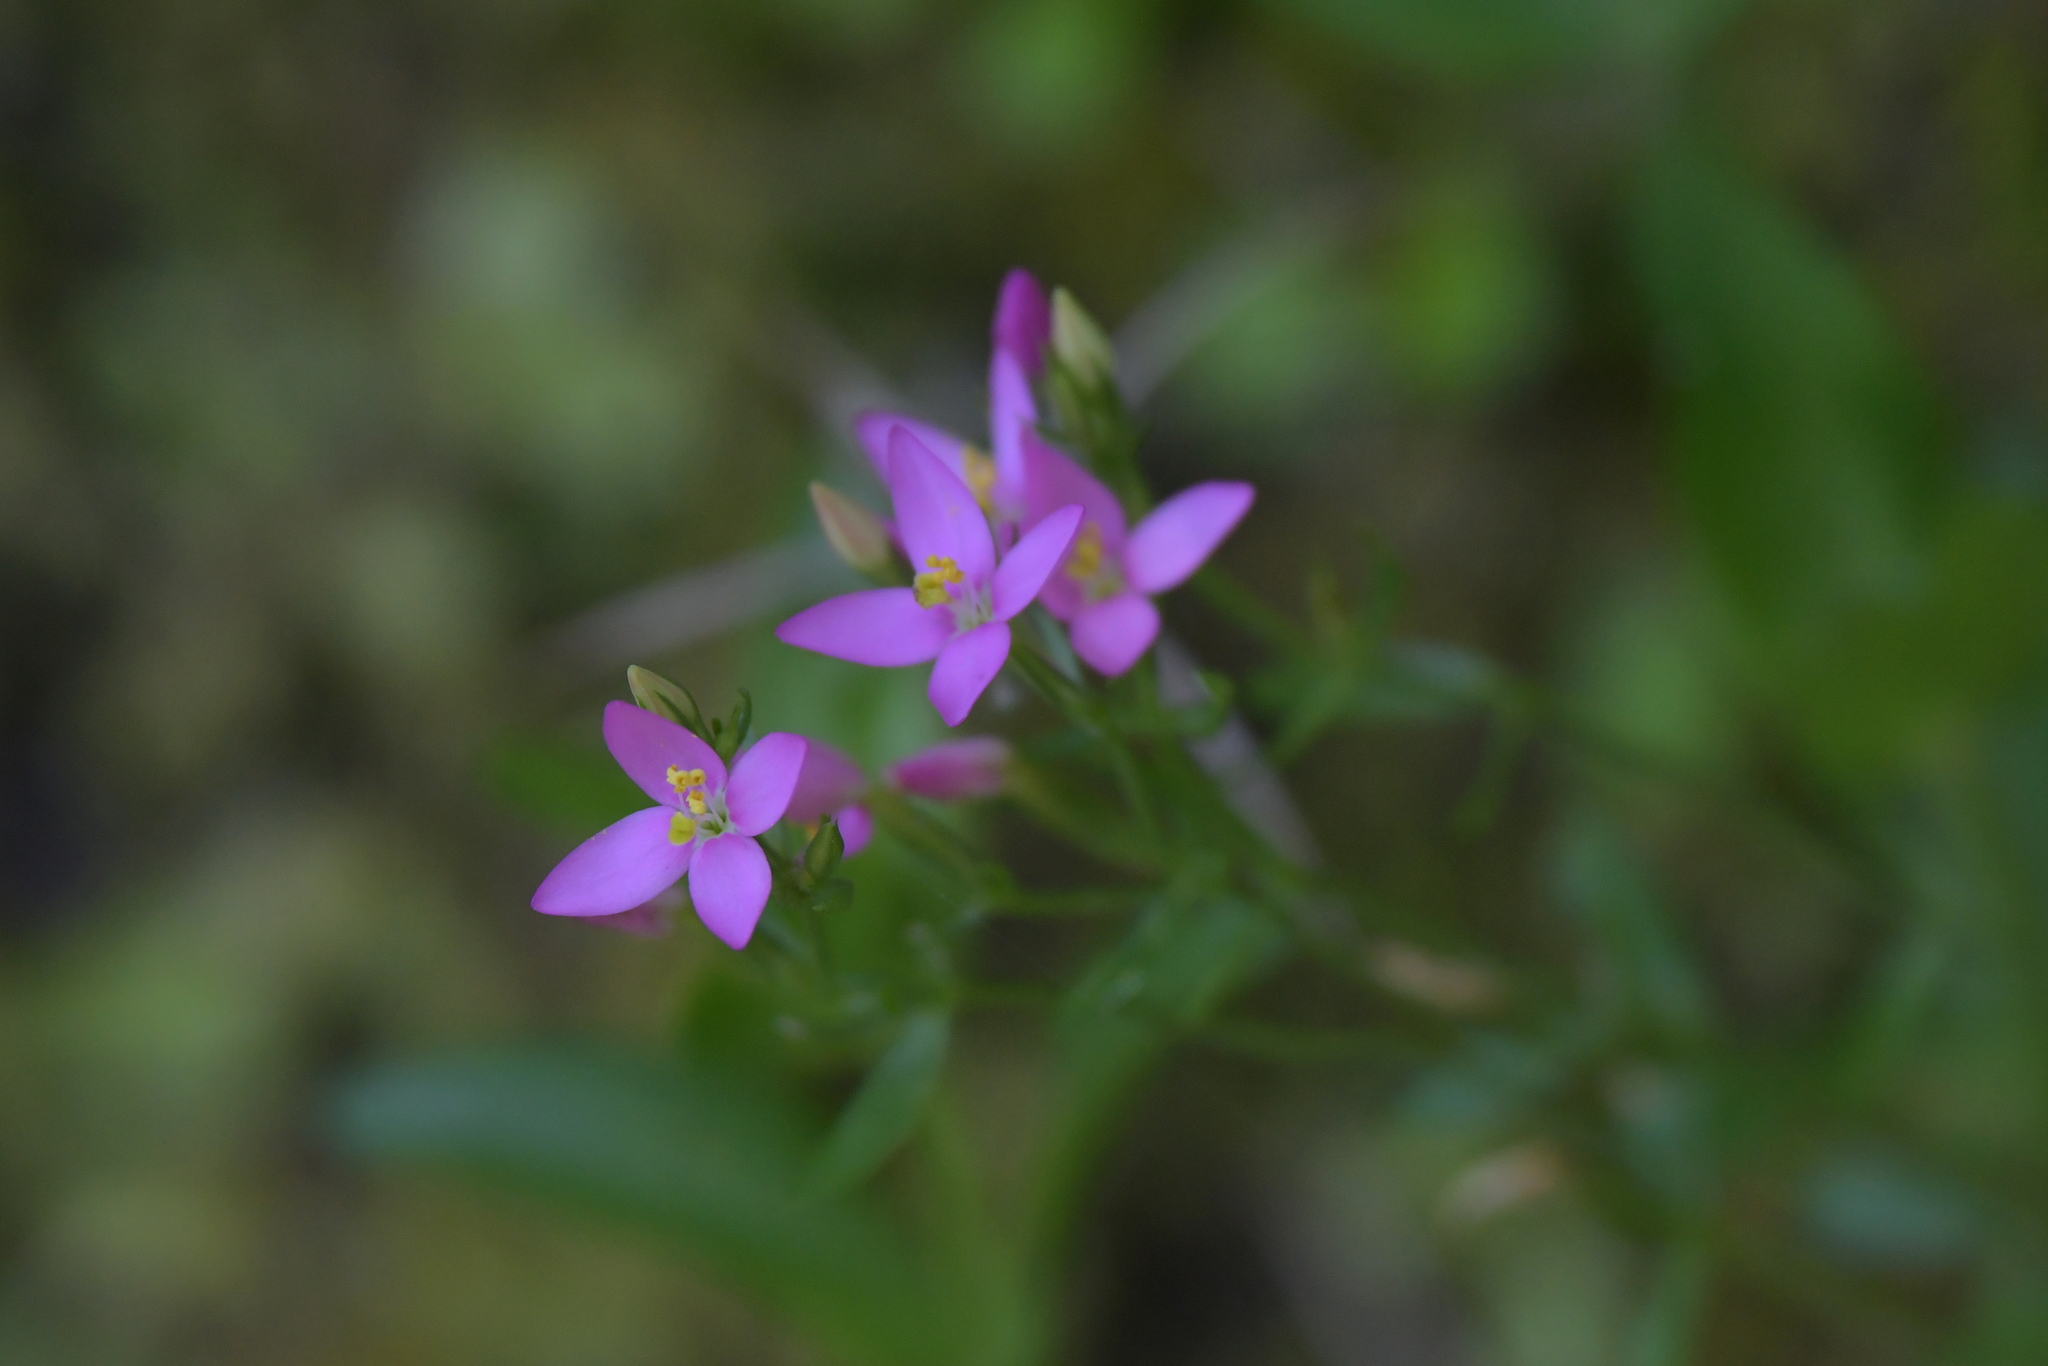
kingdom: Plantae
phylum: Tracheophyta
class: Magnoliopsida
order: Gentianales
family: Gentianaceae
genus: Centaurium
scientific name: Centaurium erythraea
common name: Common centaury
